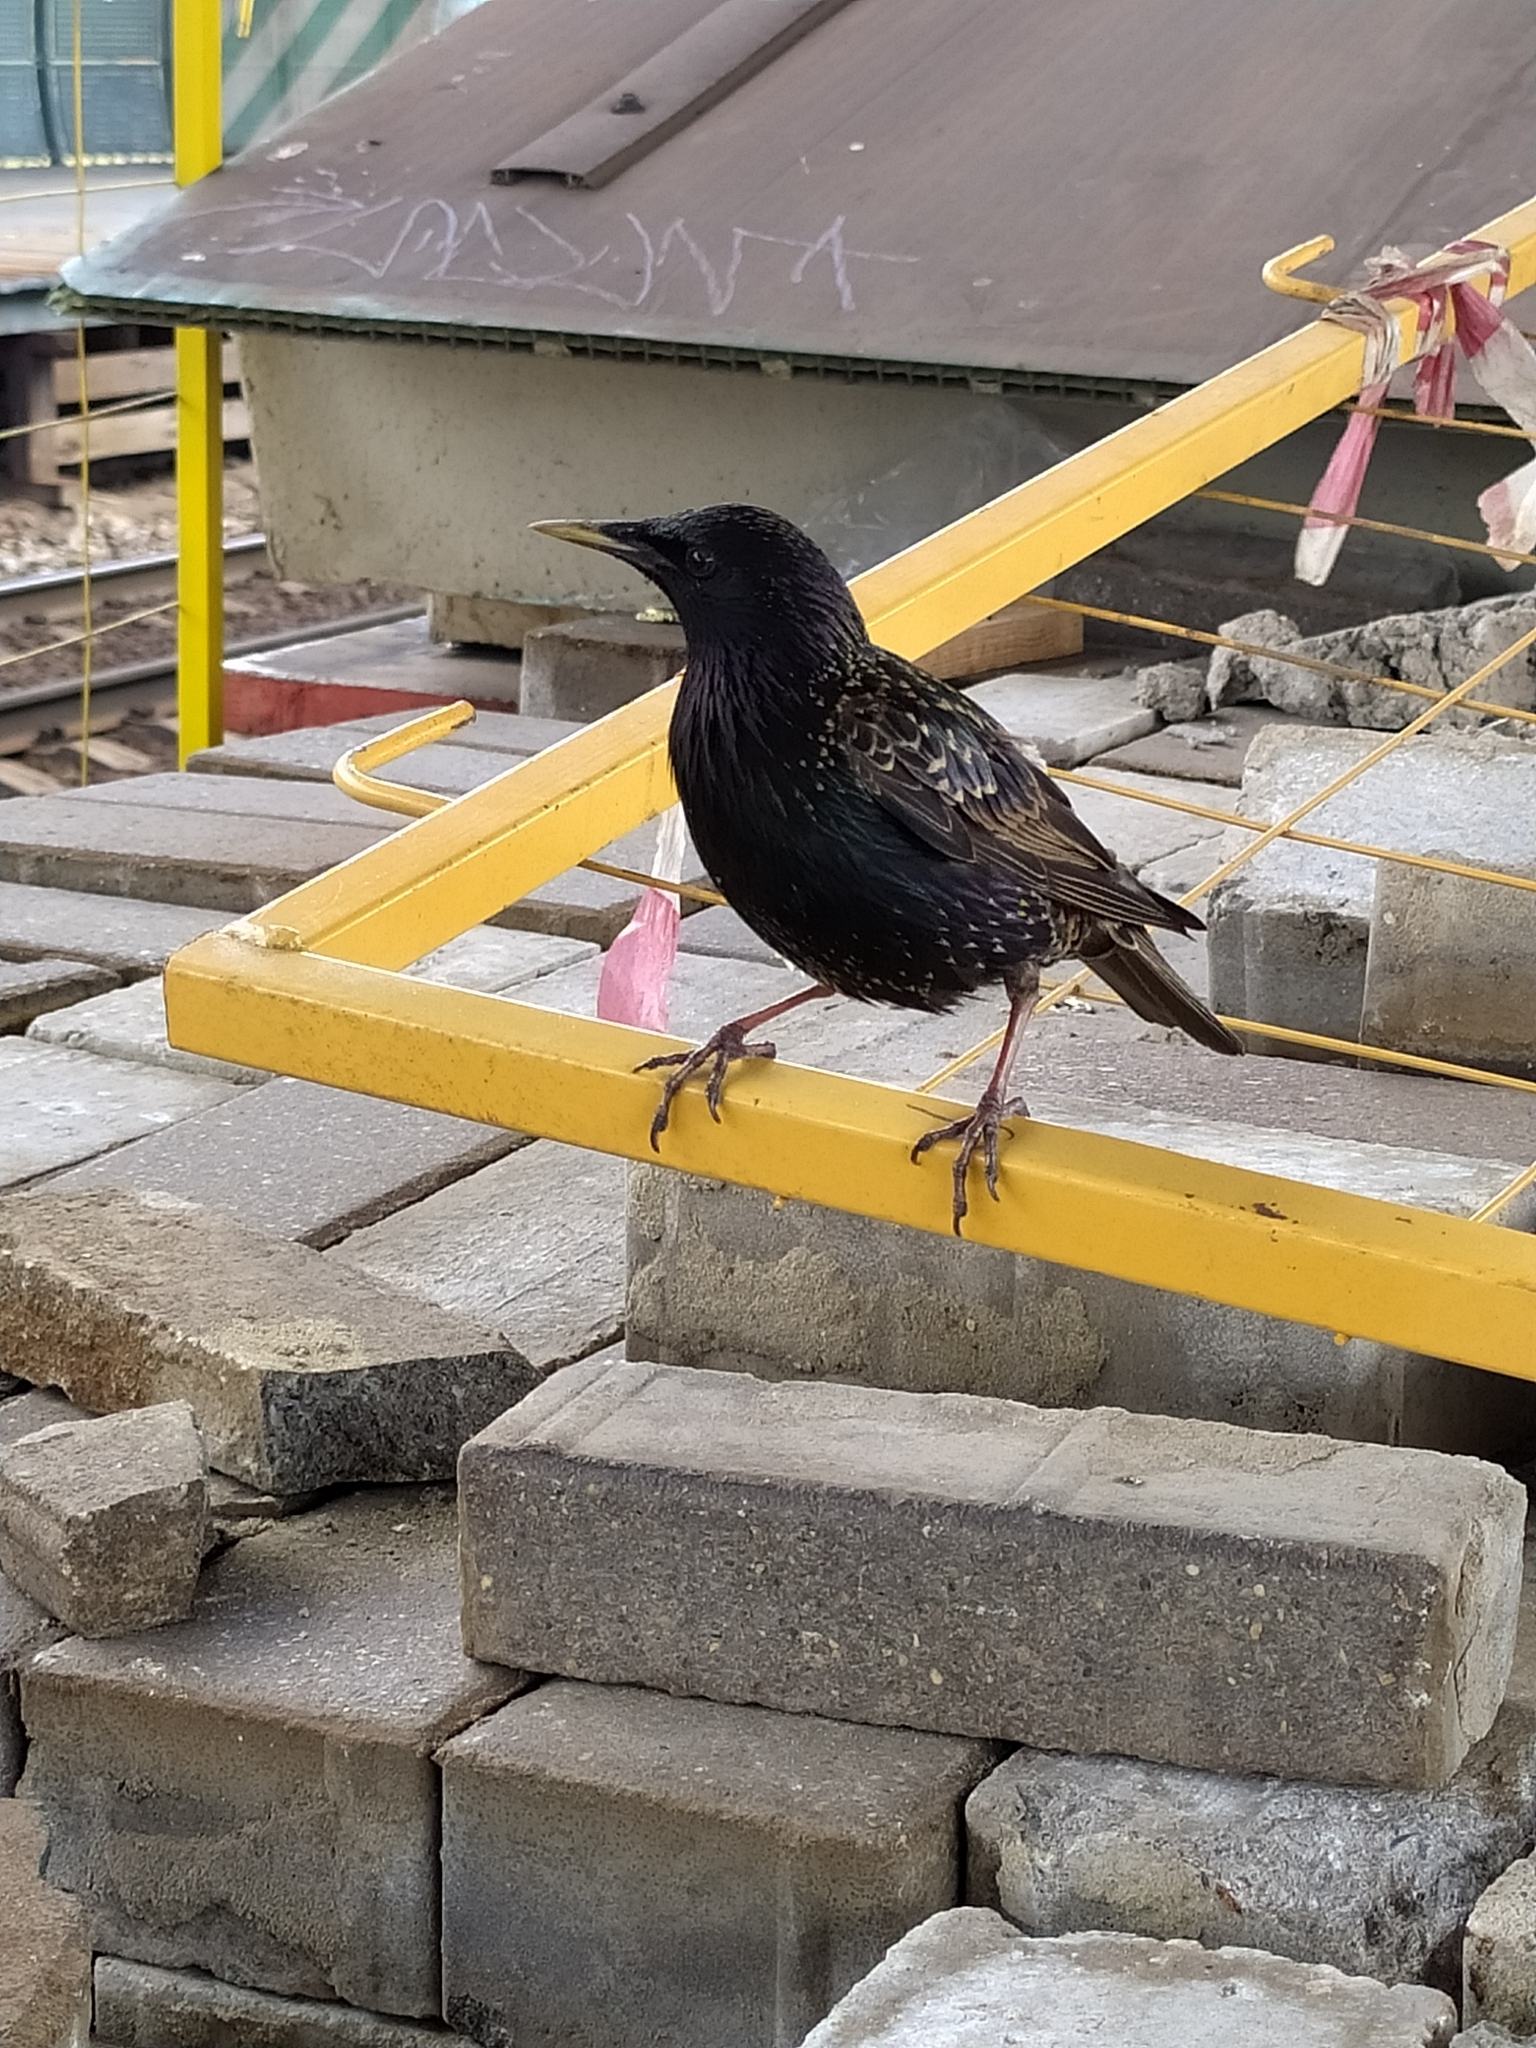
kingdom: Animalia
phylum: Chordata
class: Aves
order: Passeriformes
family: Sturnidae
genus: Sturnus
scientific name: Sturnus vulgaris
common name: Common starling
